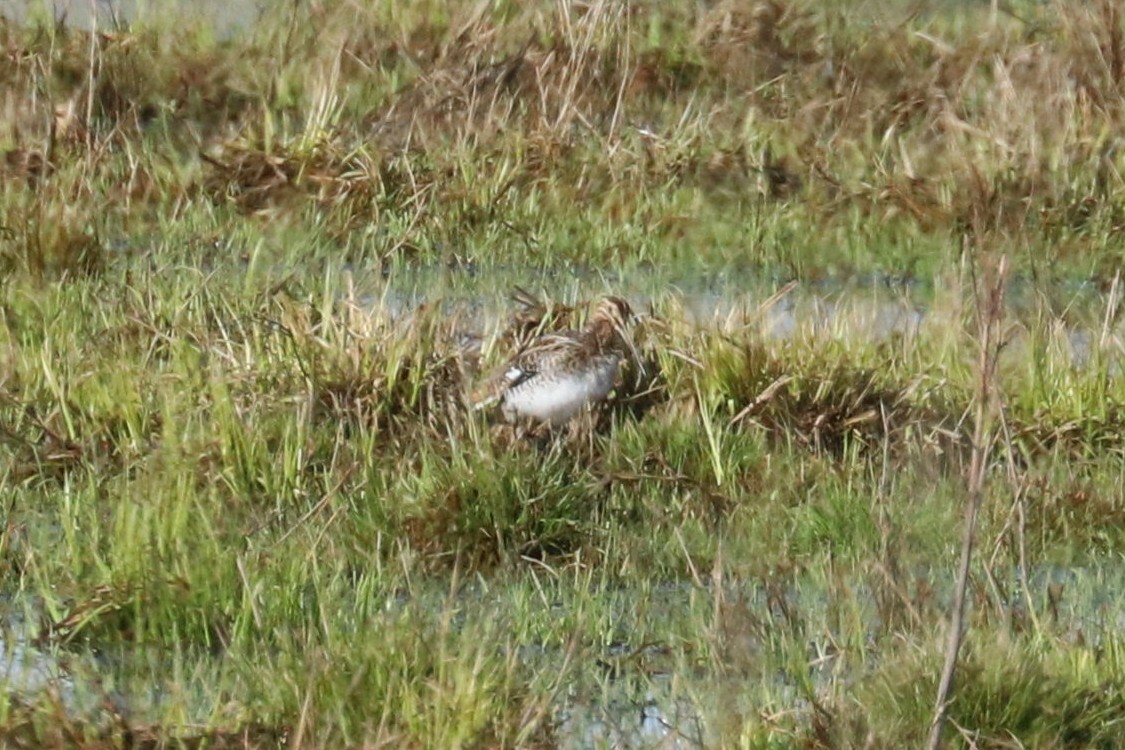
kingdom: Animalia
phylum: Chordata
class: Aves
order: Charadriiformes
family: Scolopacidae
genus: Gallinago
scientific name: Gallinago gallinago
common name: Common snipe
